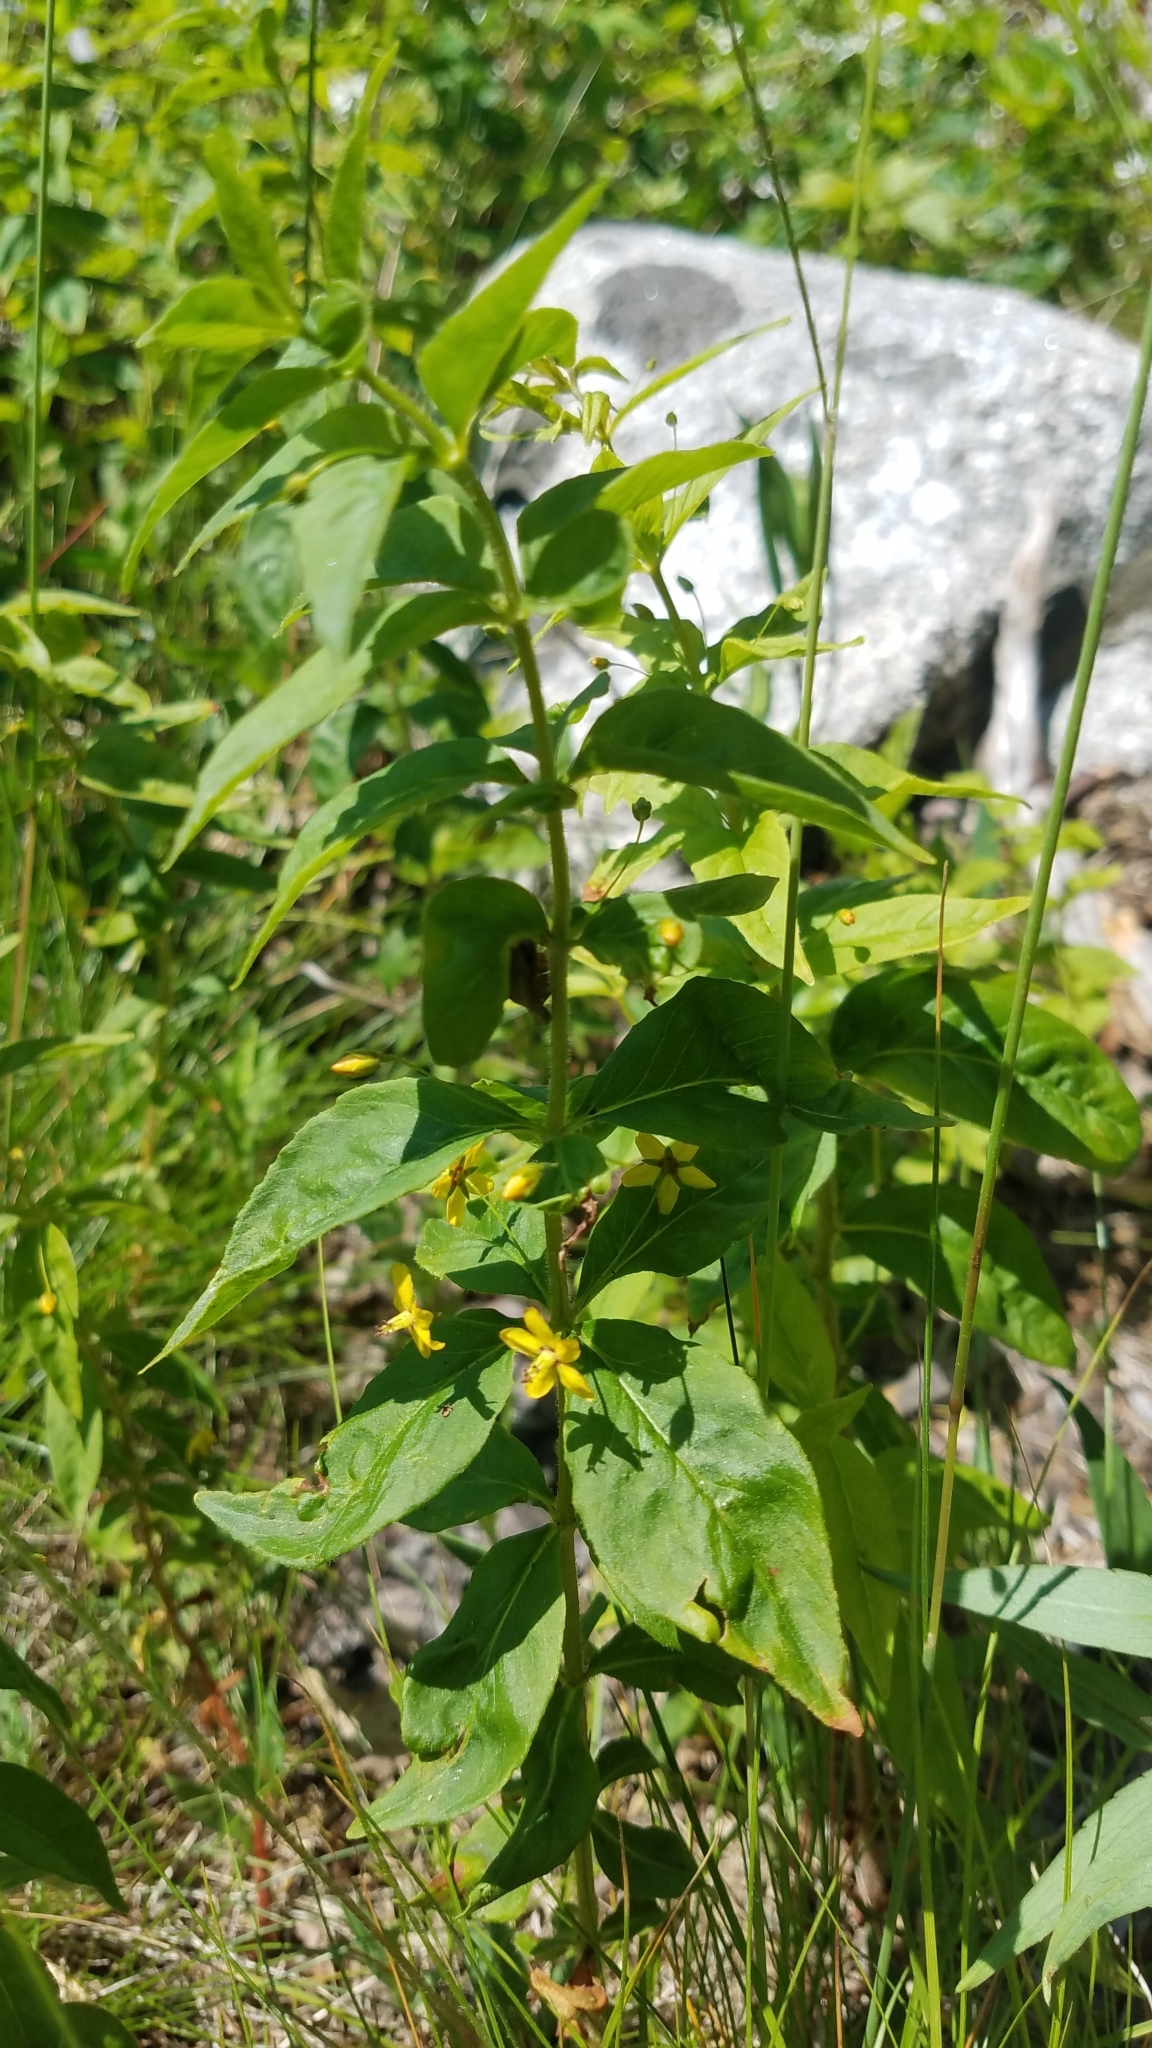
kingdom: Plantae
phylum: Tracheophyta
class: Magnoliopsida
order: Ericales
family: Primulaceae
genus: Lysimachia
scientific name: Lysimachia quadrifolia
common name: Whorled loosestrife
